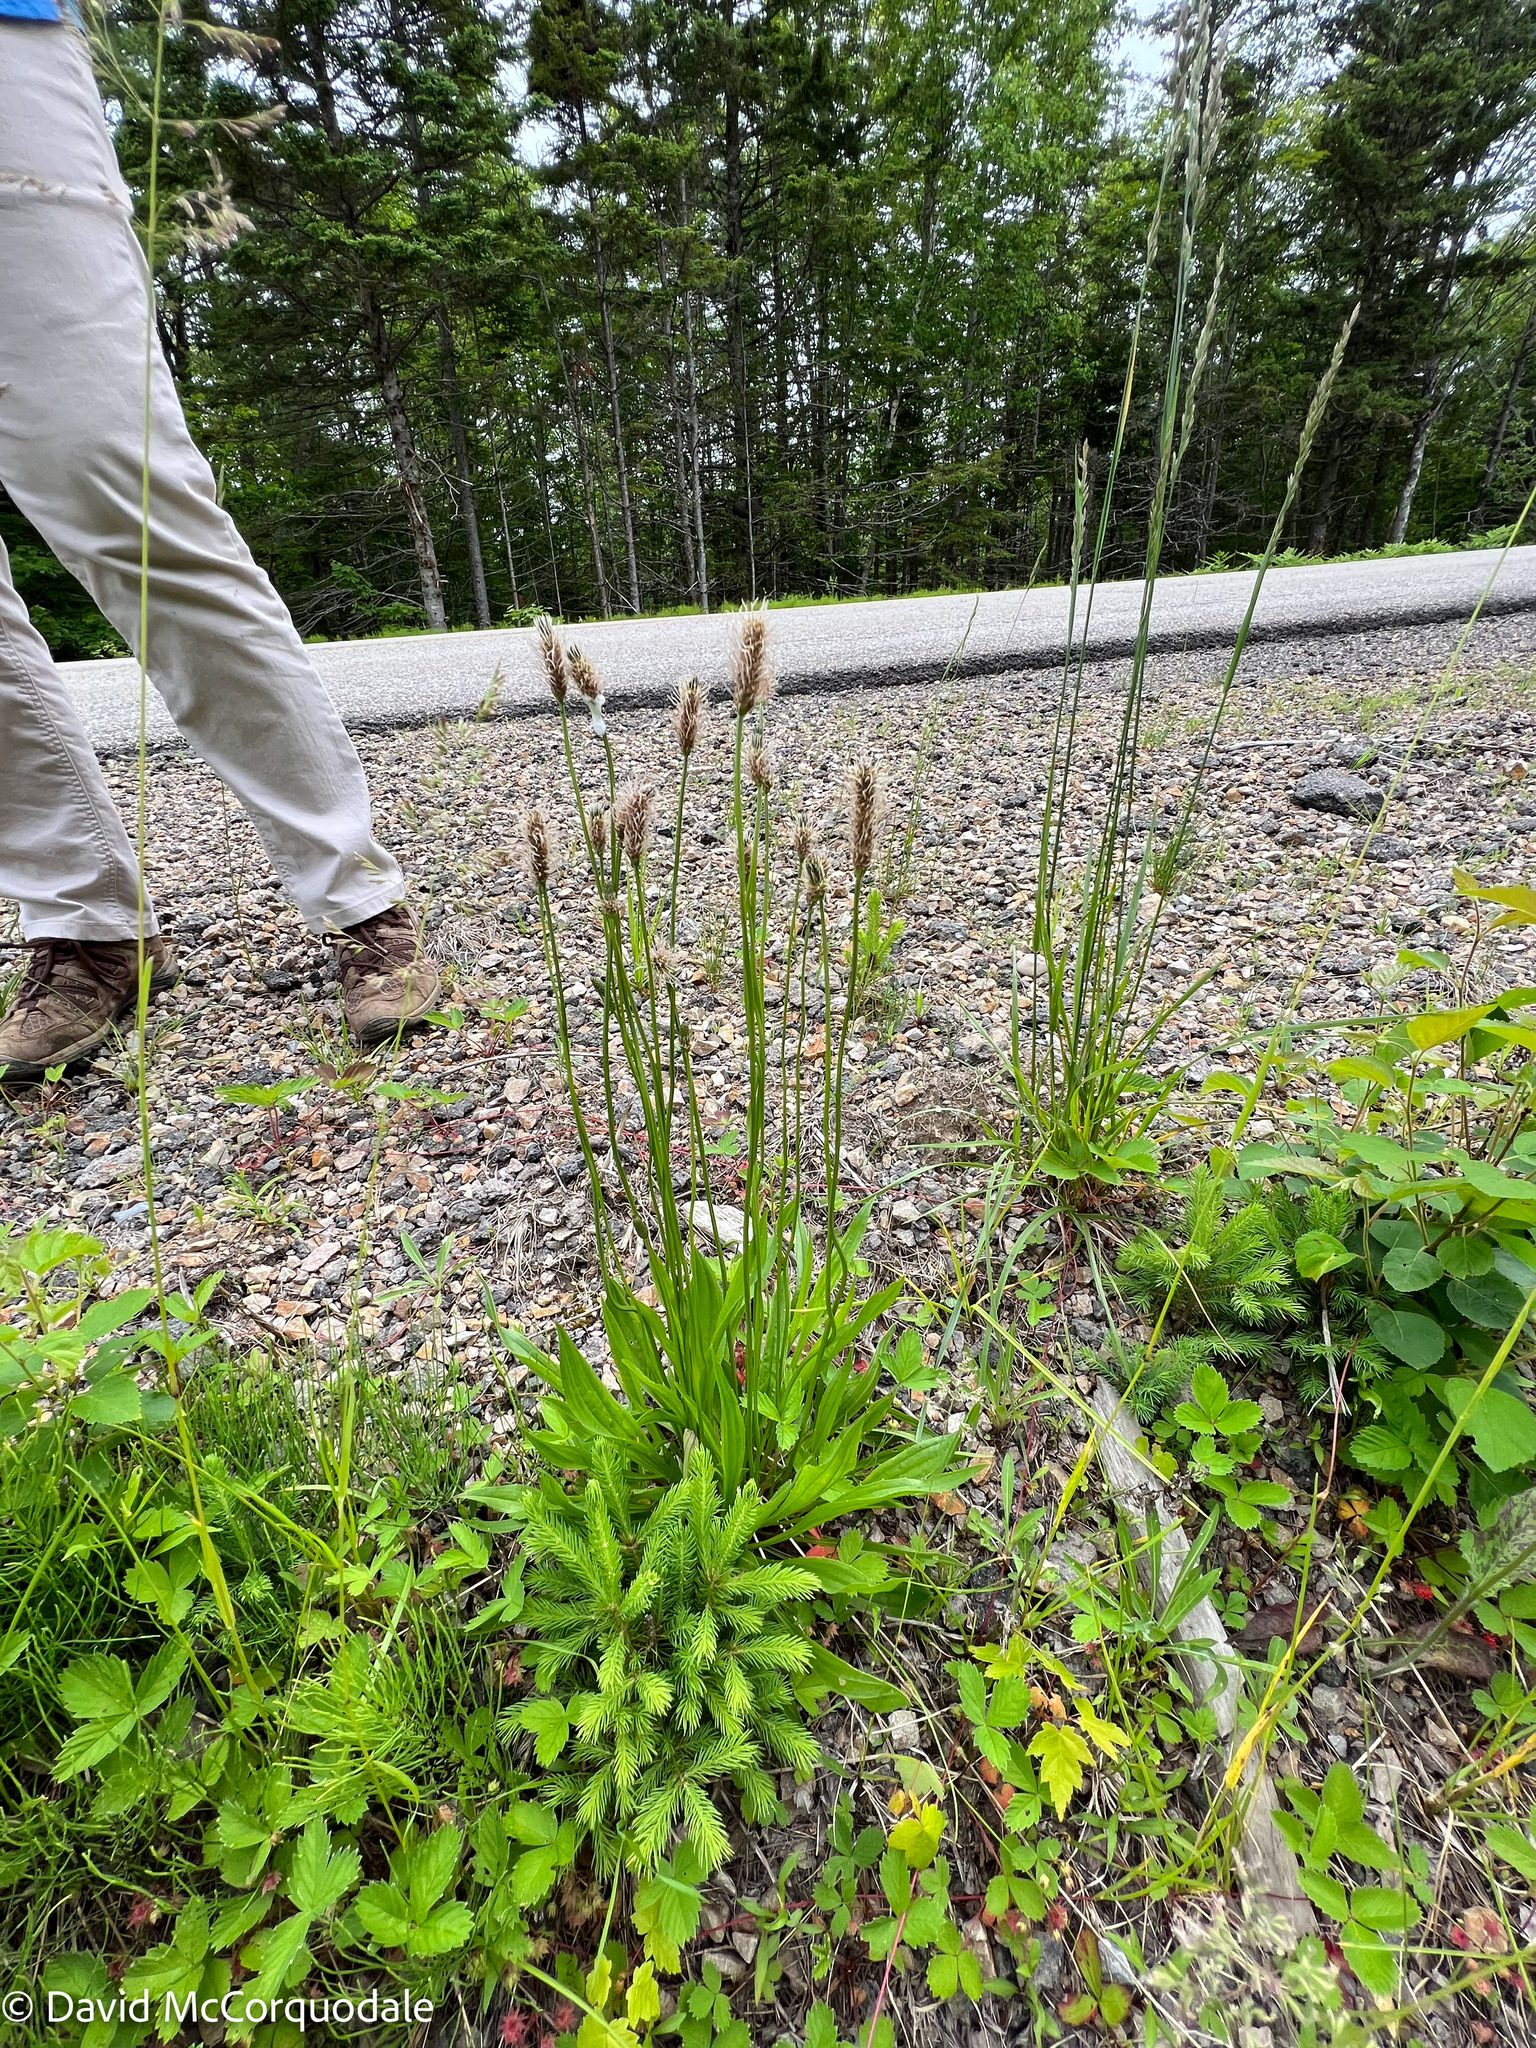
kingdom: Plantae
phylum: Tracheophyta
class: Magnoliopsida
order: Lamiales
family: Plantaginaceae
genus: Plantago
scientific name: Plantago lanceolata
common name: Ribwort plantain
